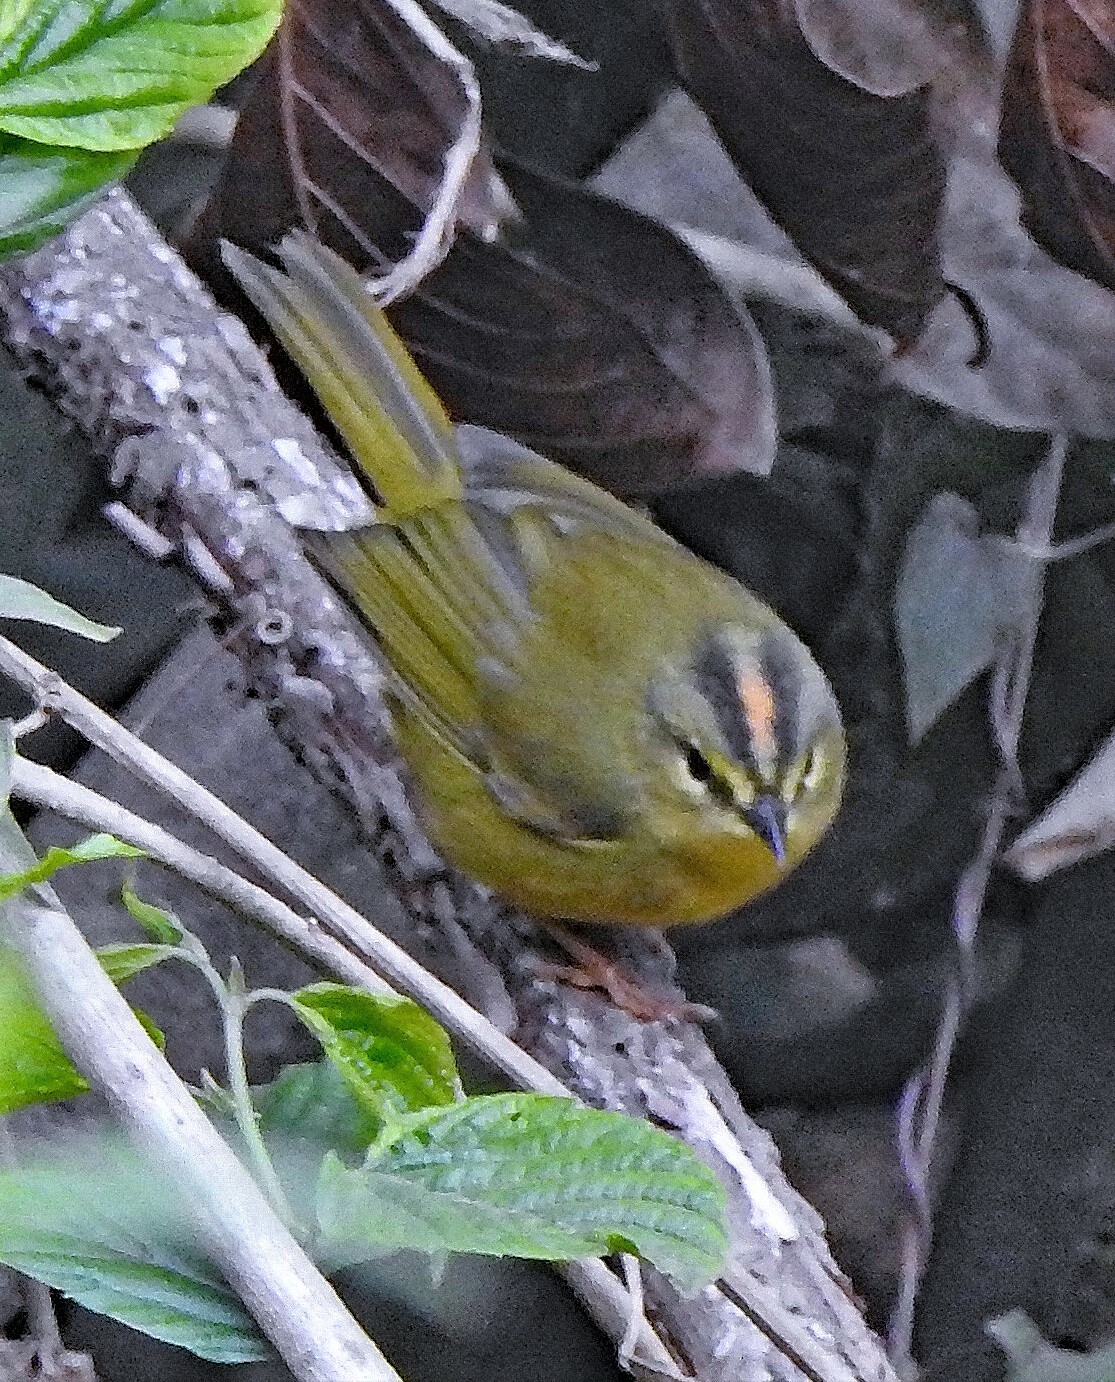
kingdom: Animalia
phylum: Chordata
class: Aves
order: Passeriformes
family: Parulidae
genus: Myiothlypis
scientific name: Myiothlypis bivittata
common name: Two-banded warbler
